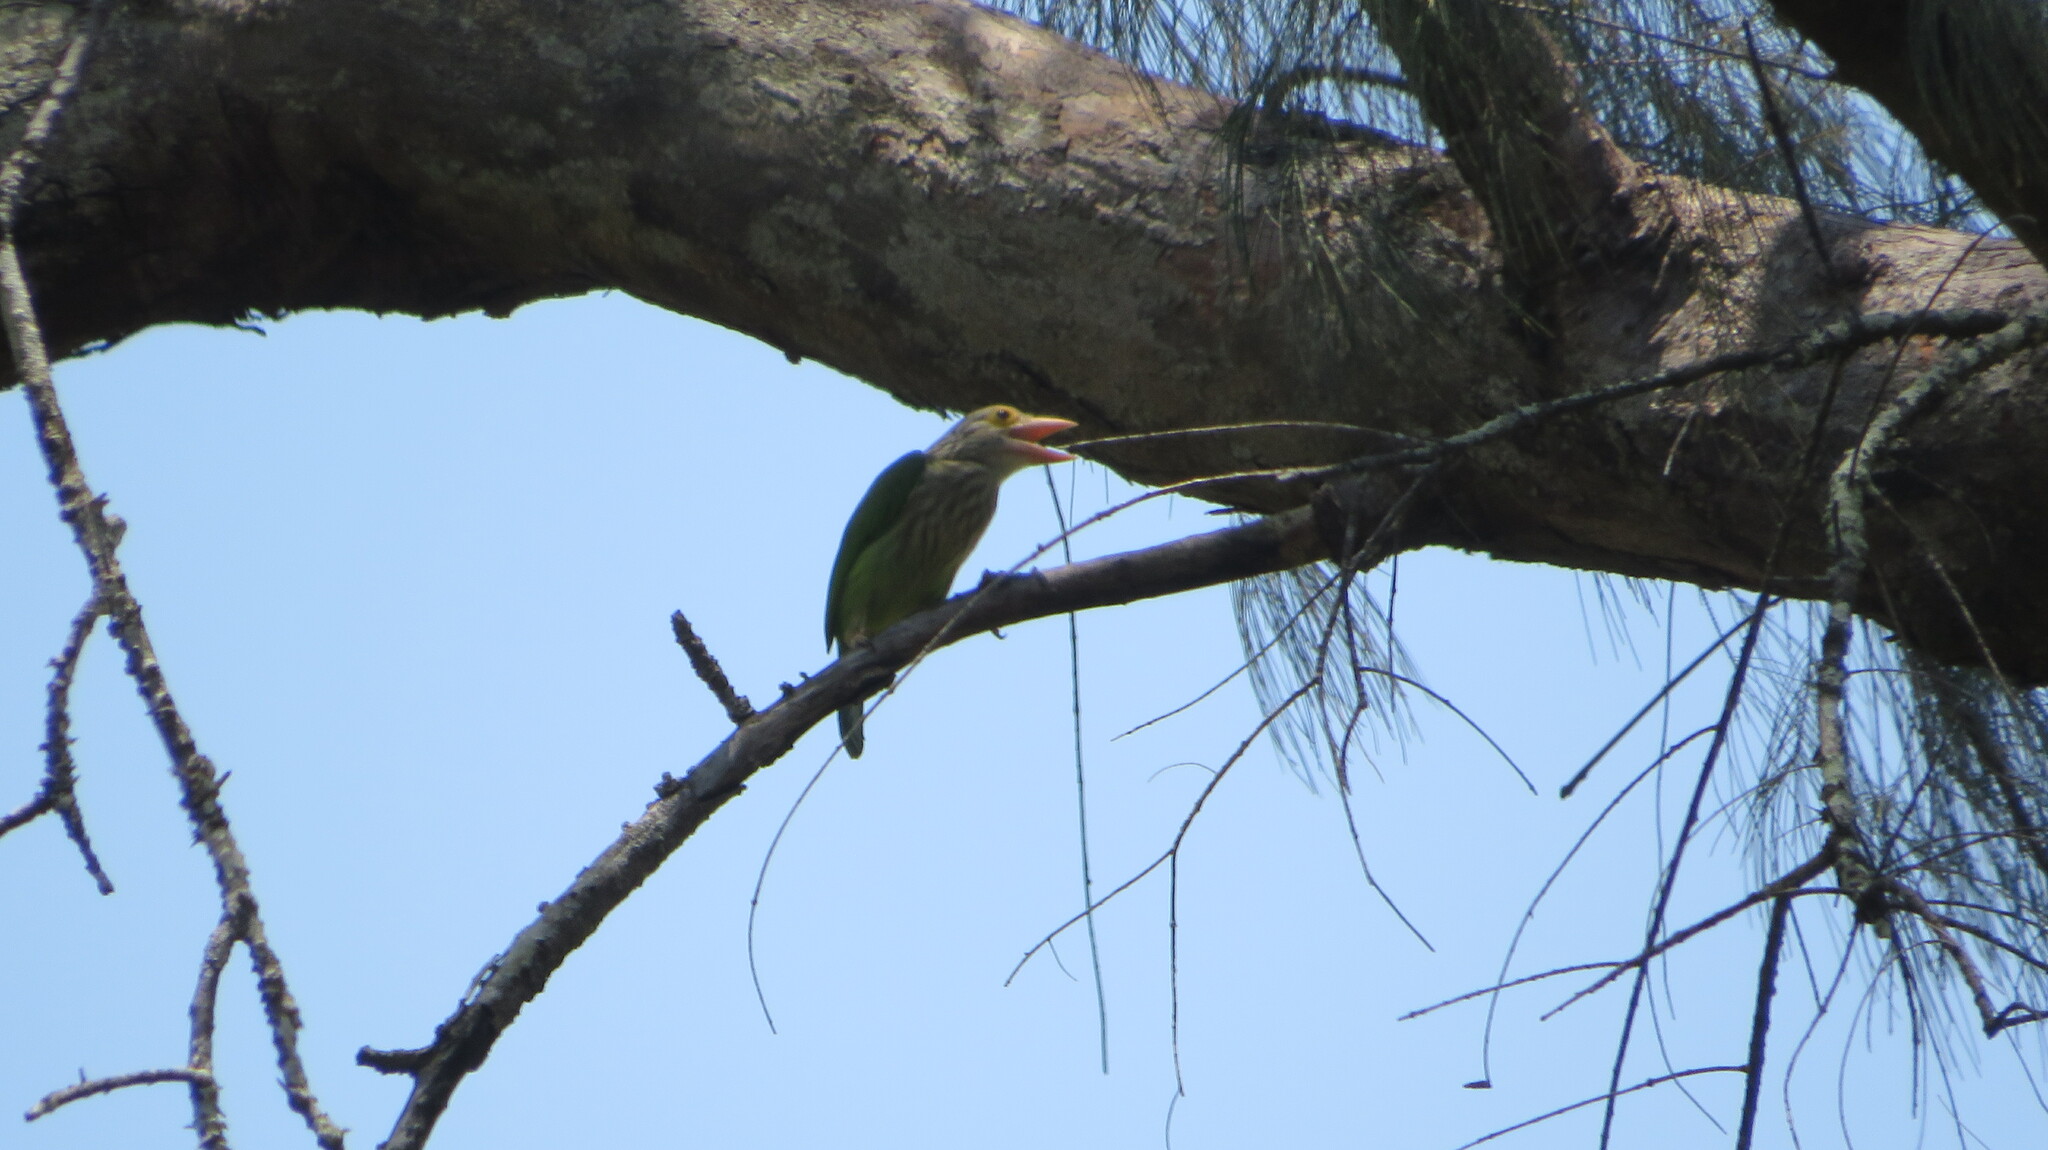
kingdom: Animalia
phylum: Chordata
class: Aves
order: Piciformes
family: Megalaimidae
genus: Psilopogon
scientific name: Psilopogon lineatus
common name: Lineated barbet
